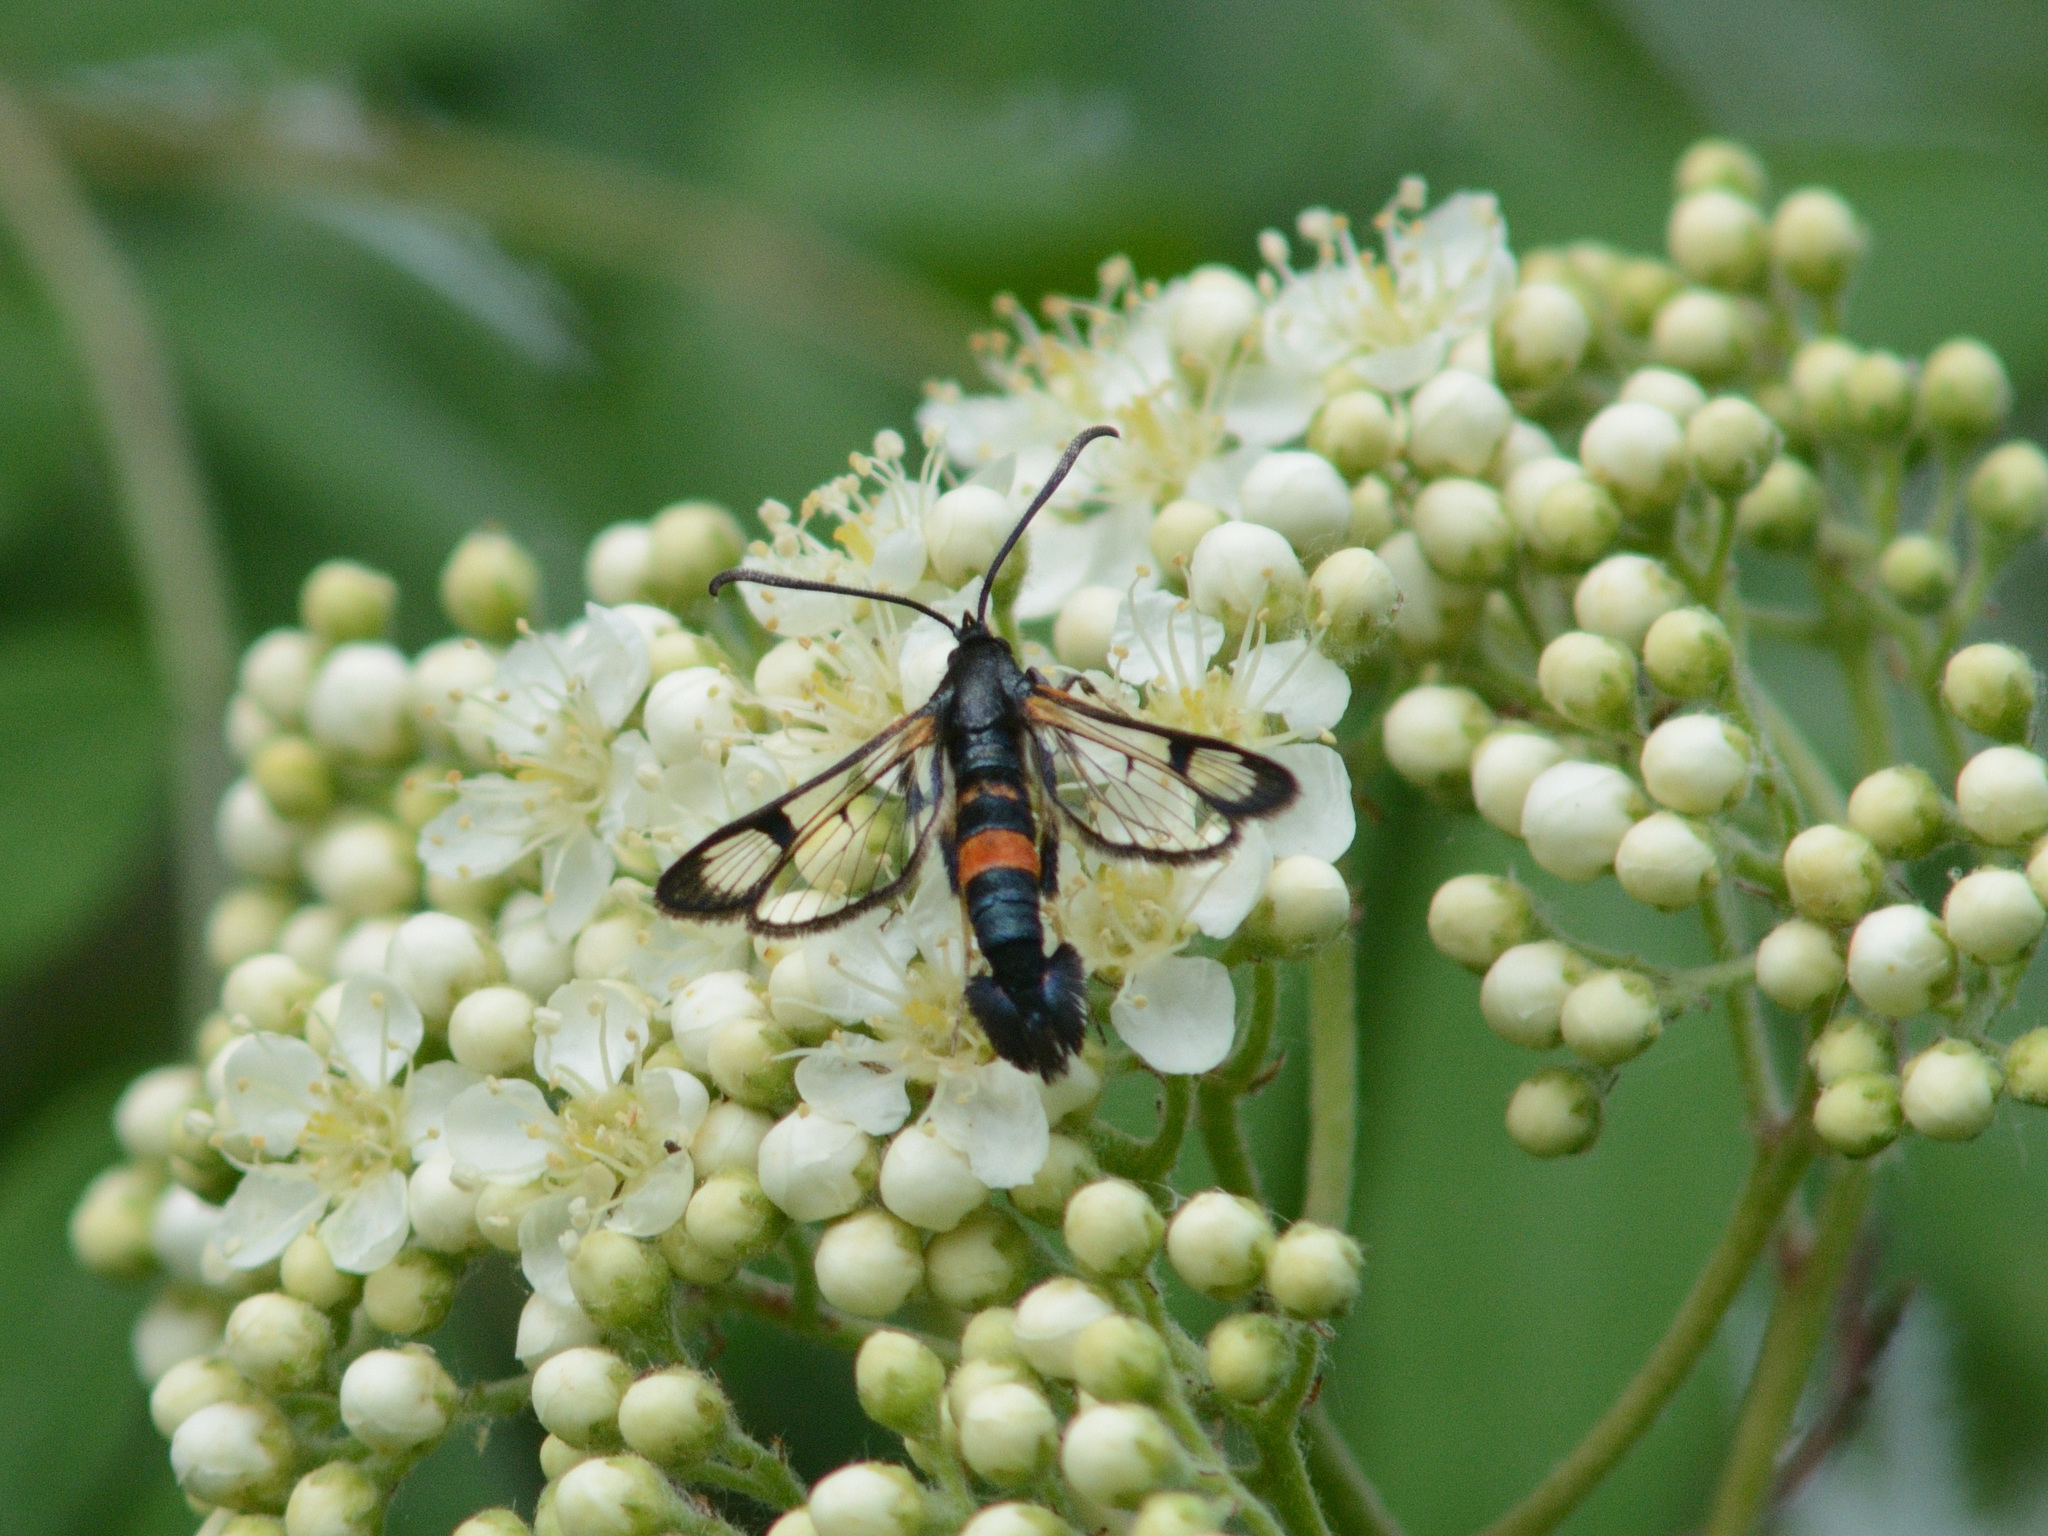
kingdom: Animalia
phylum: Arthropoda
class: Insecta
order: Lepidoptera
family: Sesiidae
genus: Synanthedon
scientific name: Synanthedon culiciformis
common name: Large red-belted clearwing
